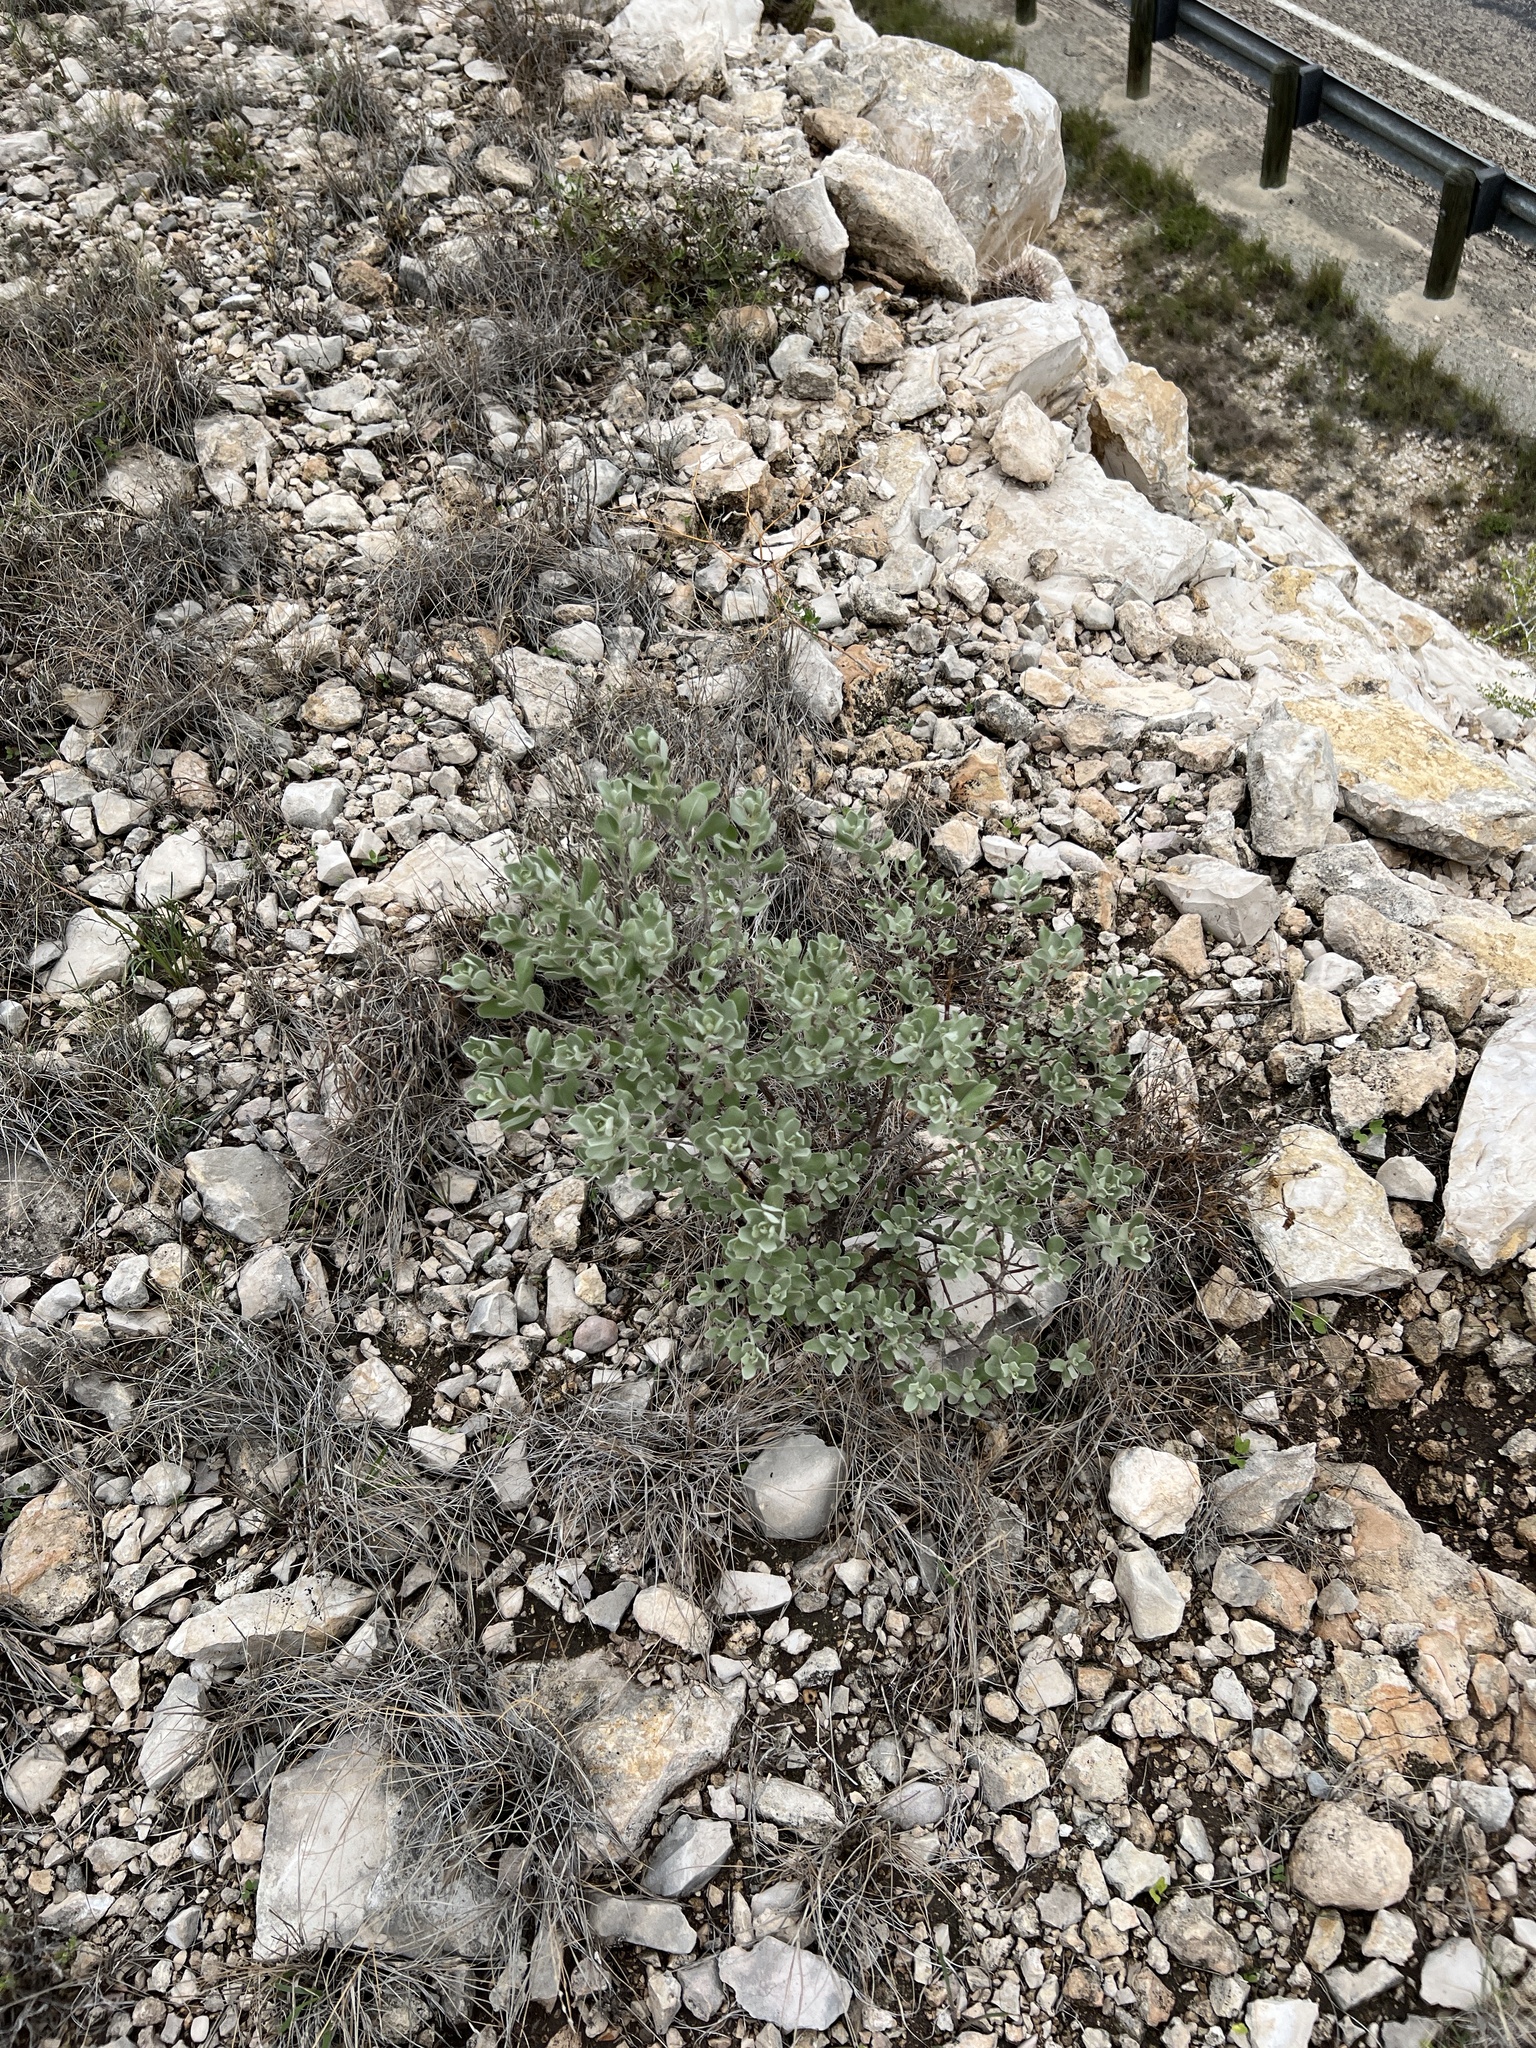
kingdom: Plantae
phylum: Tracheophyta
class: Magnoliopsida
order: Lamiales
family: Scrophulariaceae
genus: Leucophyllum
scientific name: Leucophyllum frutescens
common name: Texas silverleaf
